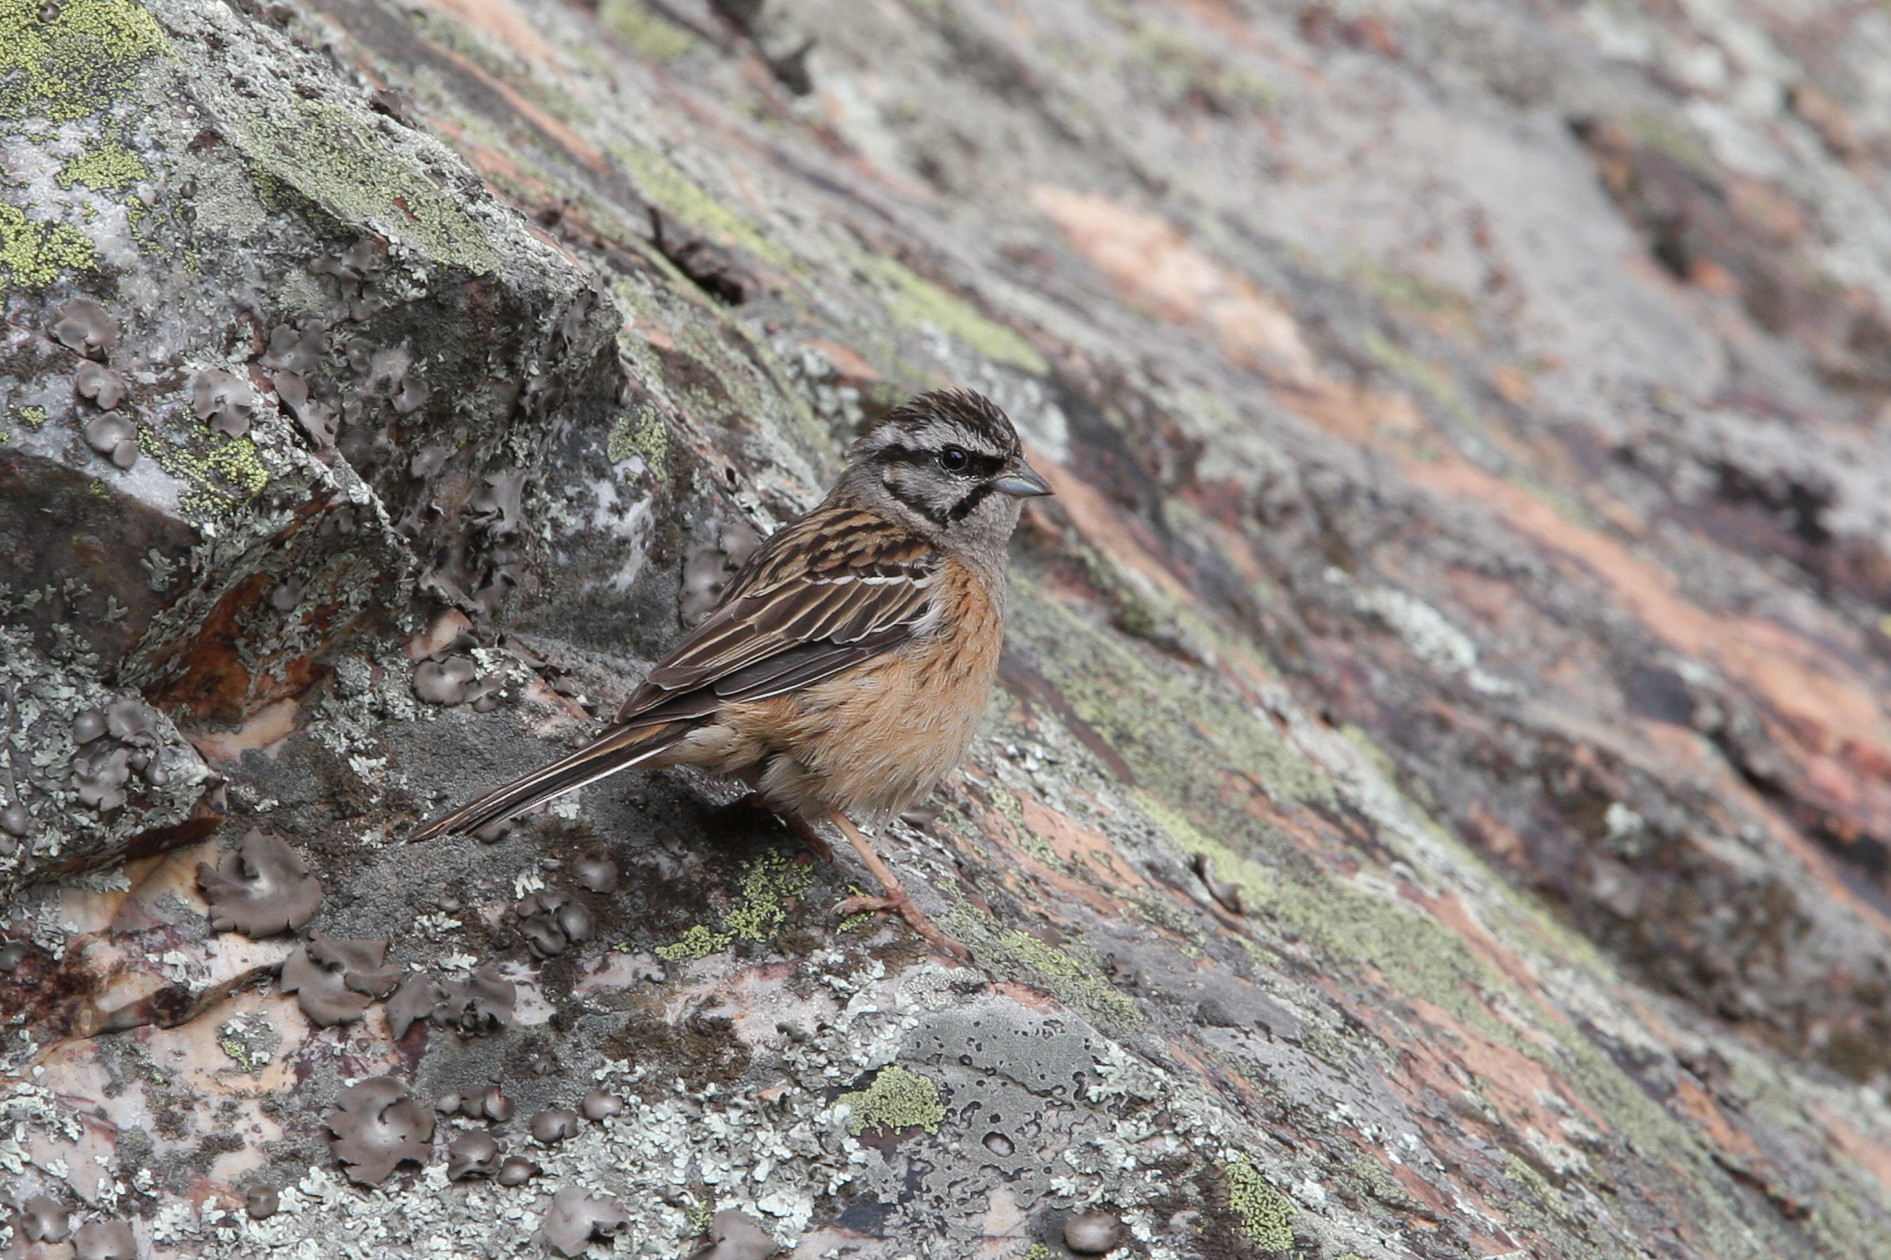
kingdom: Animalia
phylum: Chordata
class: Aves
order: Passeriformes
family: Emberizidae
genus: Emberiza
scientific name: Emberiza cia
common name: Rock bunting
